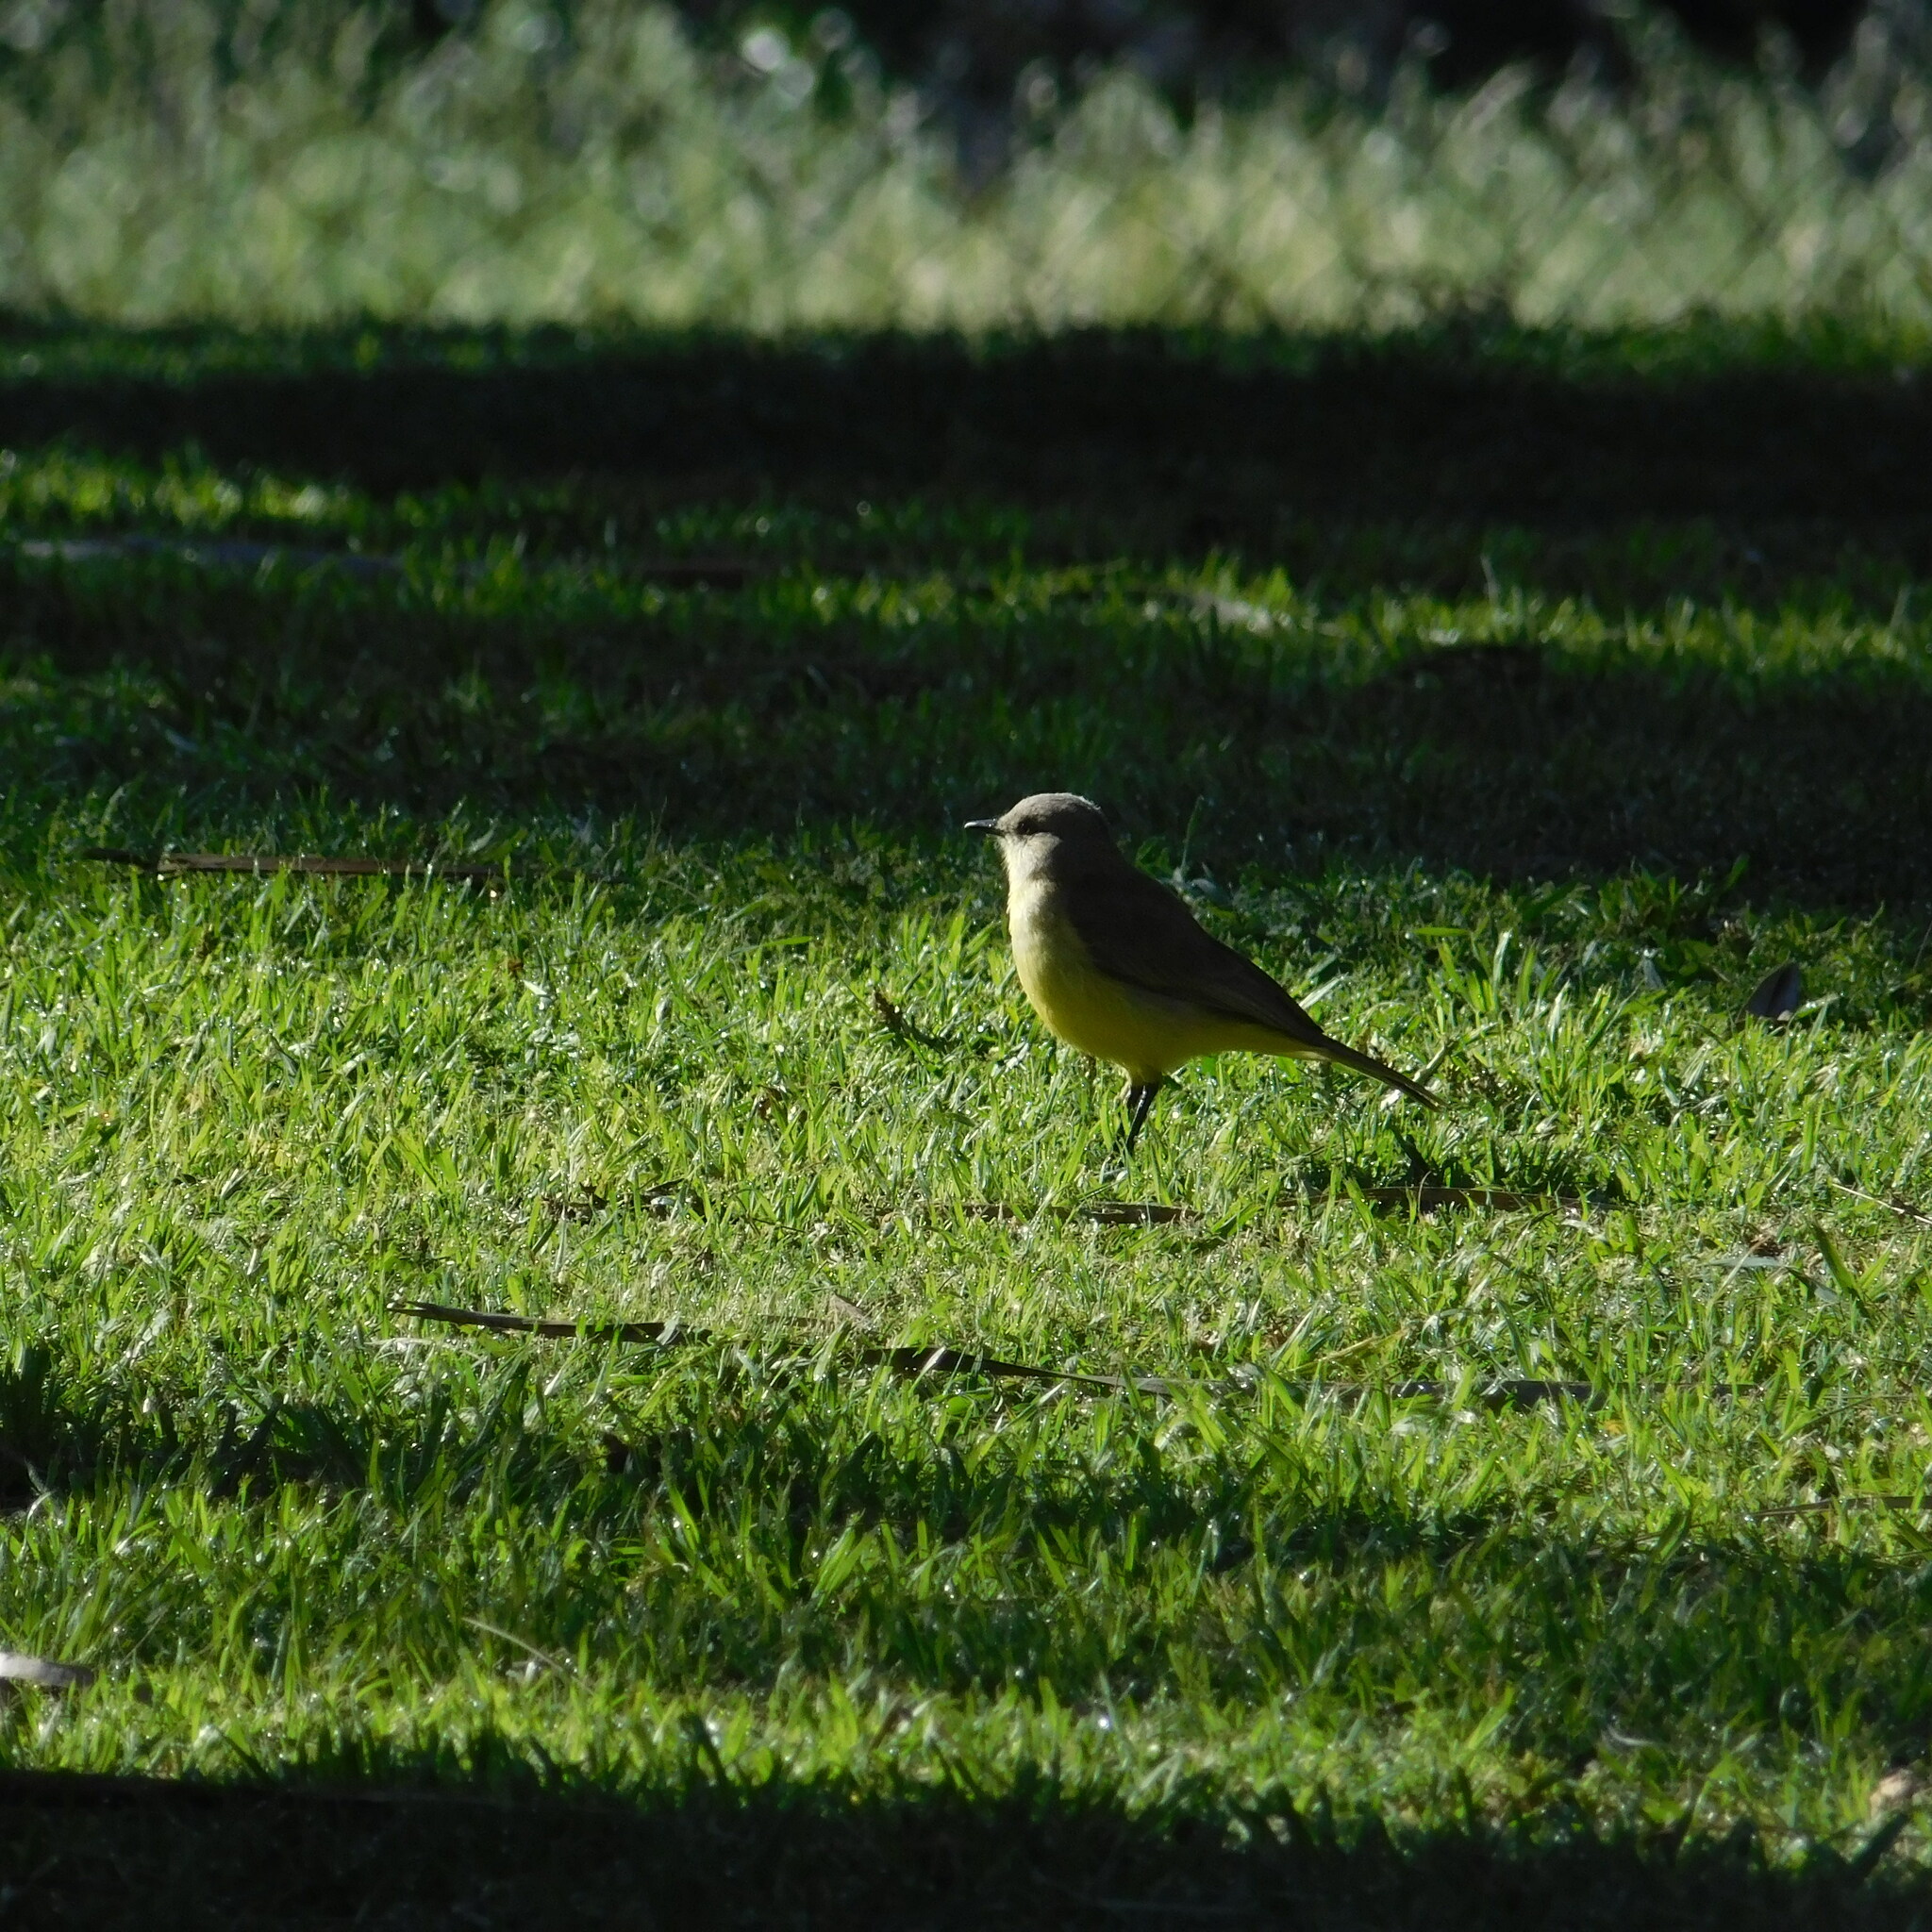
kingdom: Animalia
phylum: Chordata
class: Aves
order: Passeriformes
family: Tyrannidae
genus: Machetornis
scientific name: Machetornis rixosa
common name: Cattle tyrant
